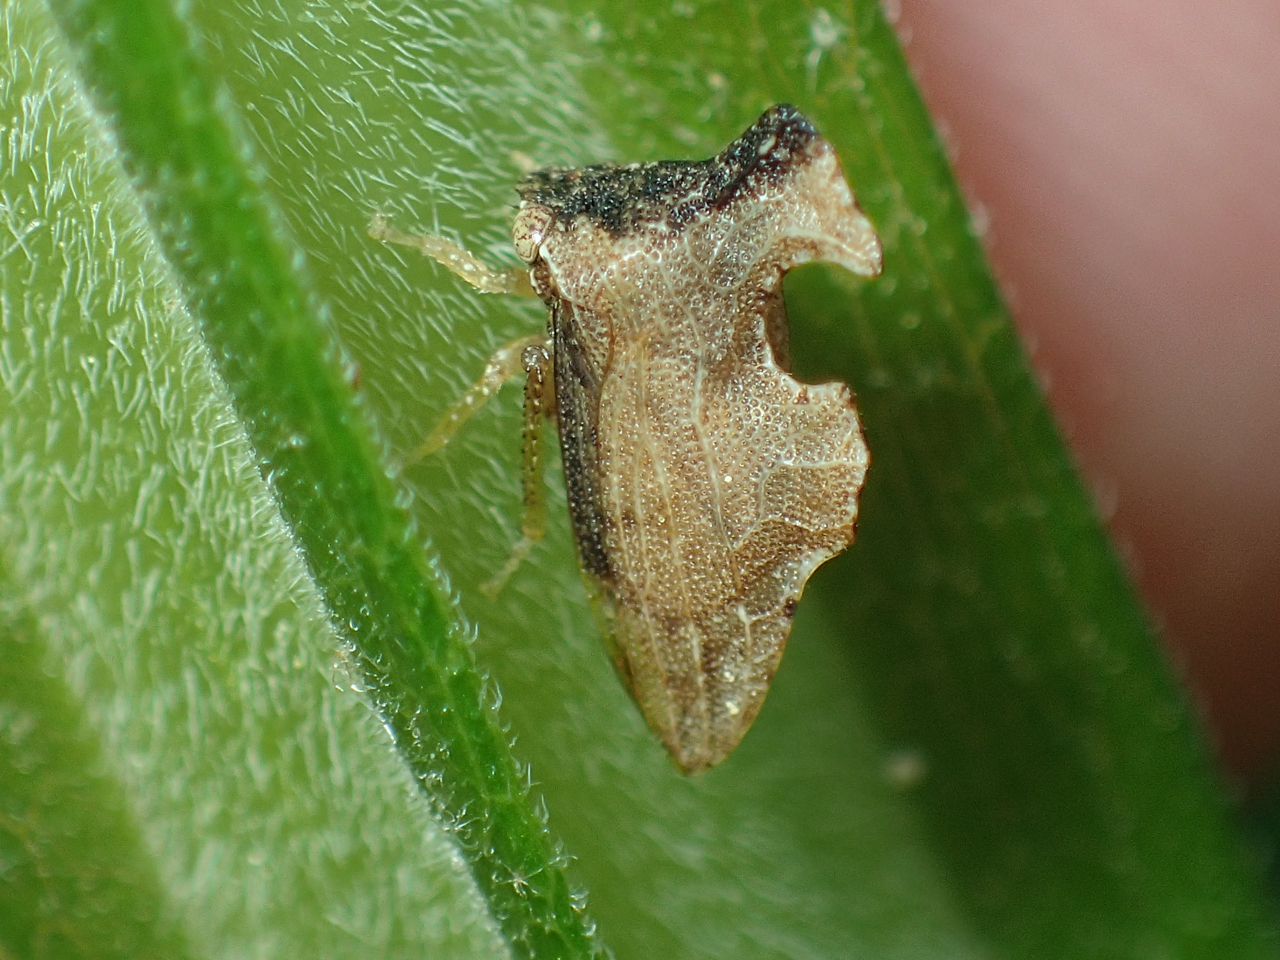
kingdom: Animalia
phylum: Arthropoda
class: Insecta
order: Hemiptera
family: Membracidae
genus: Entylia
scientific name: Entylia carinata
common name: Keeled treehopper
